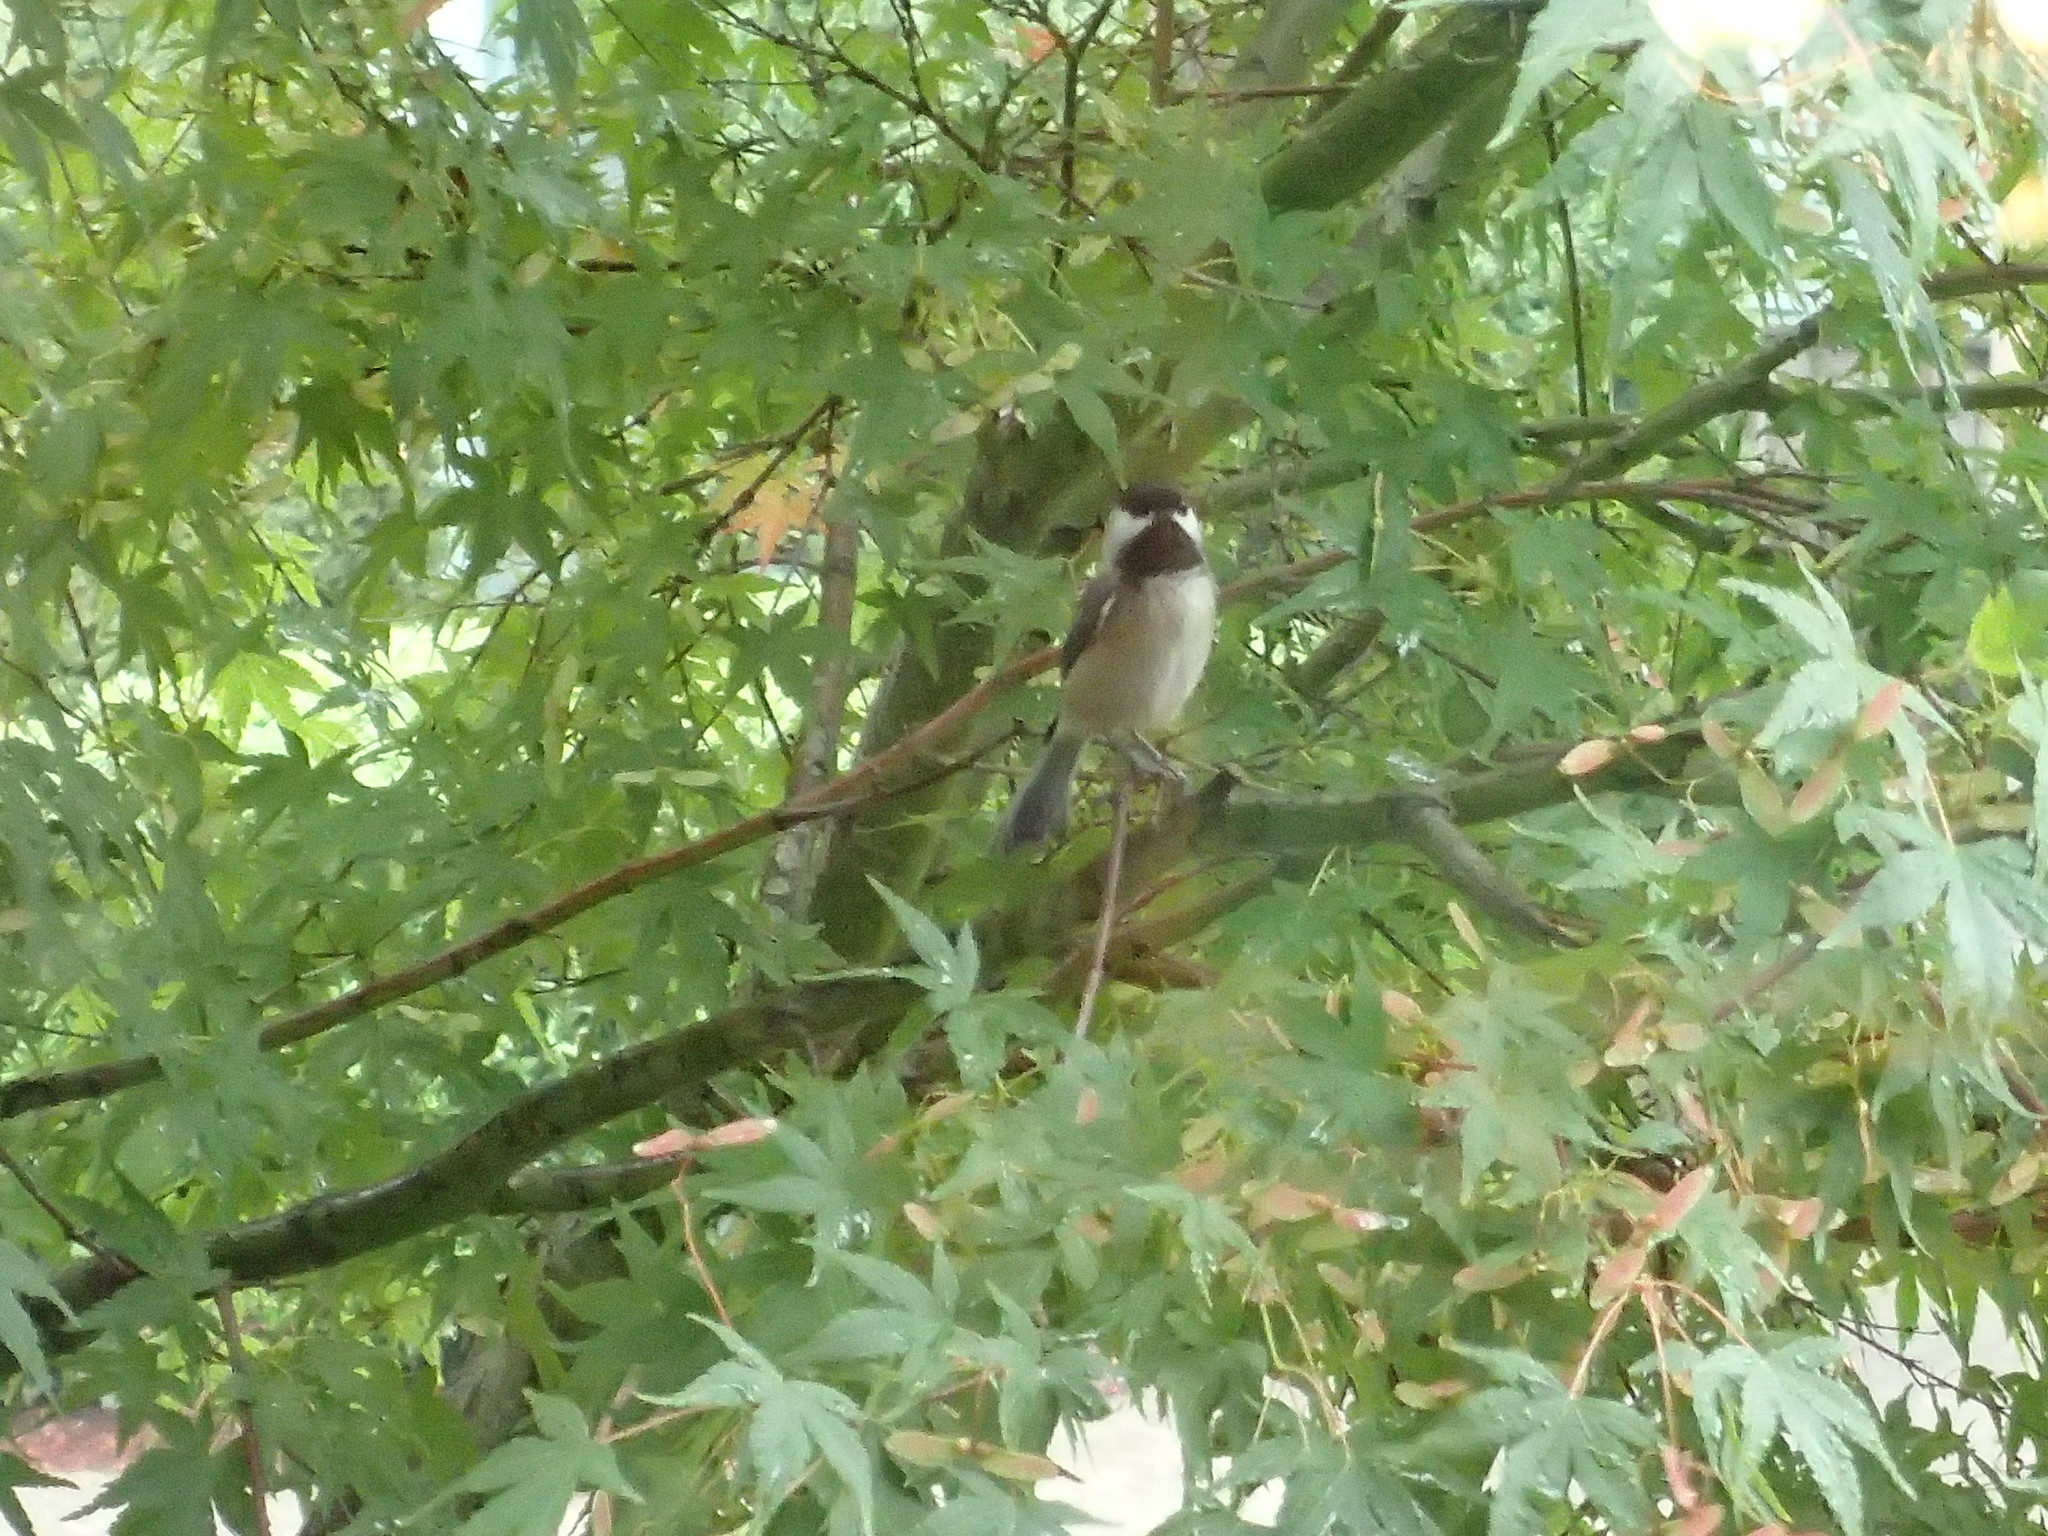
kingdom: Animalia
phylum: Chordata
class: Aves
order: Passeriformes
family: Paridae
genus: Poecile
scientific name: Poecile atricapillus
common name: Black-capped chickadee
